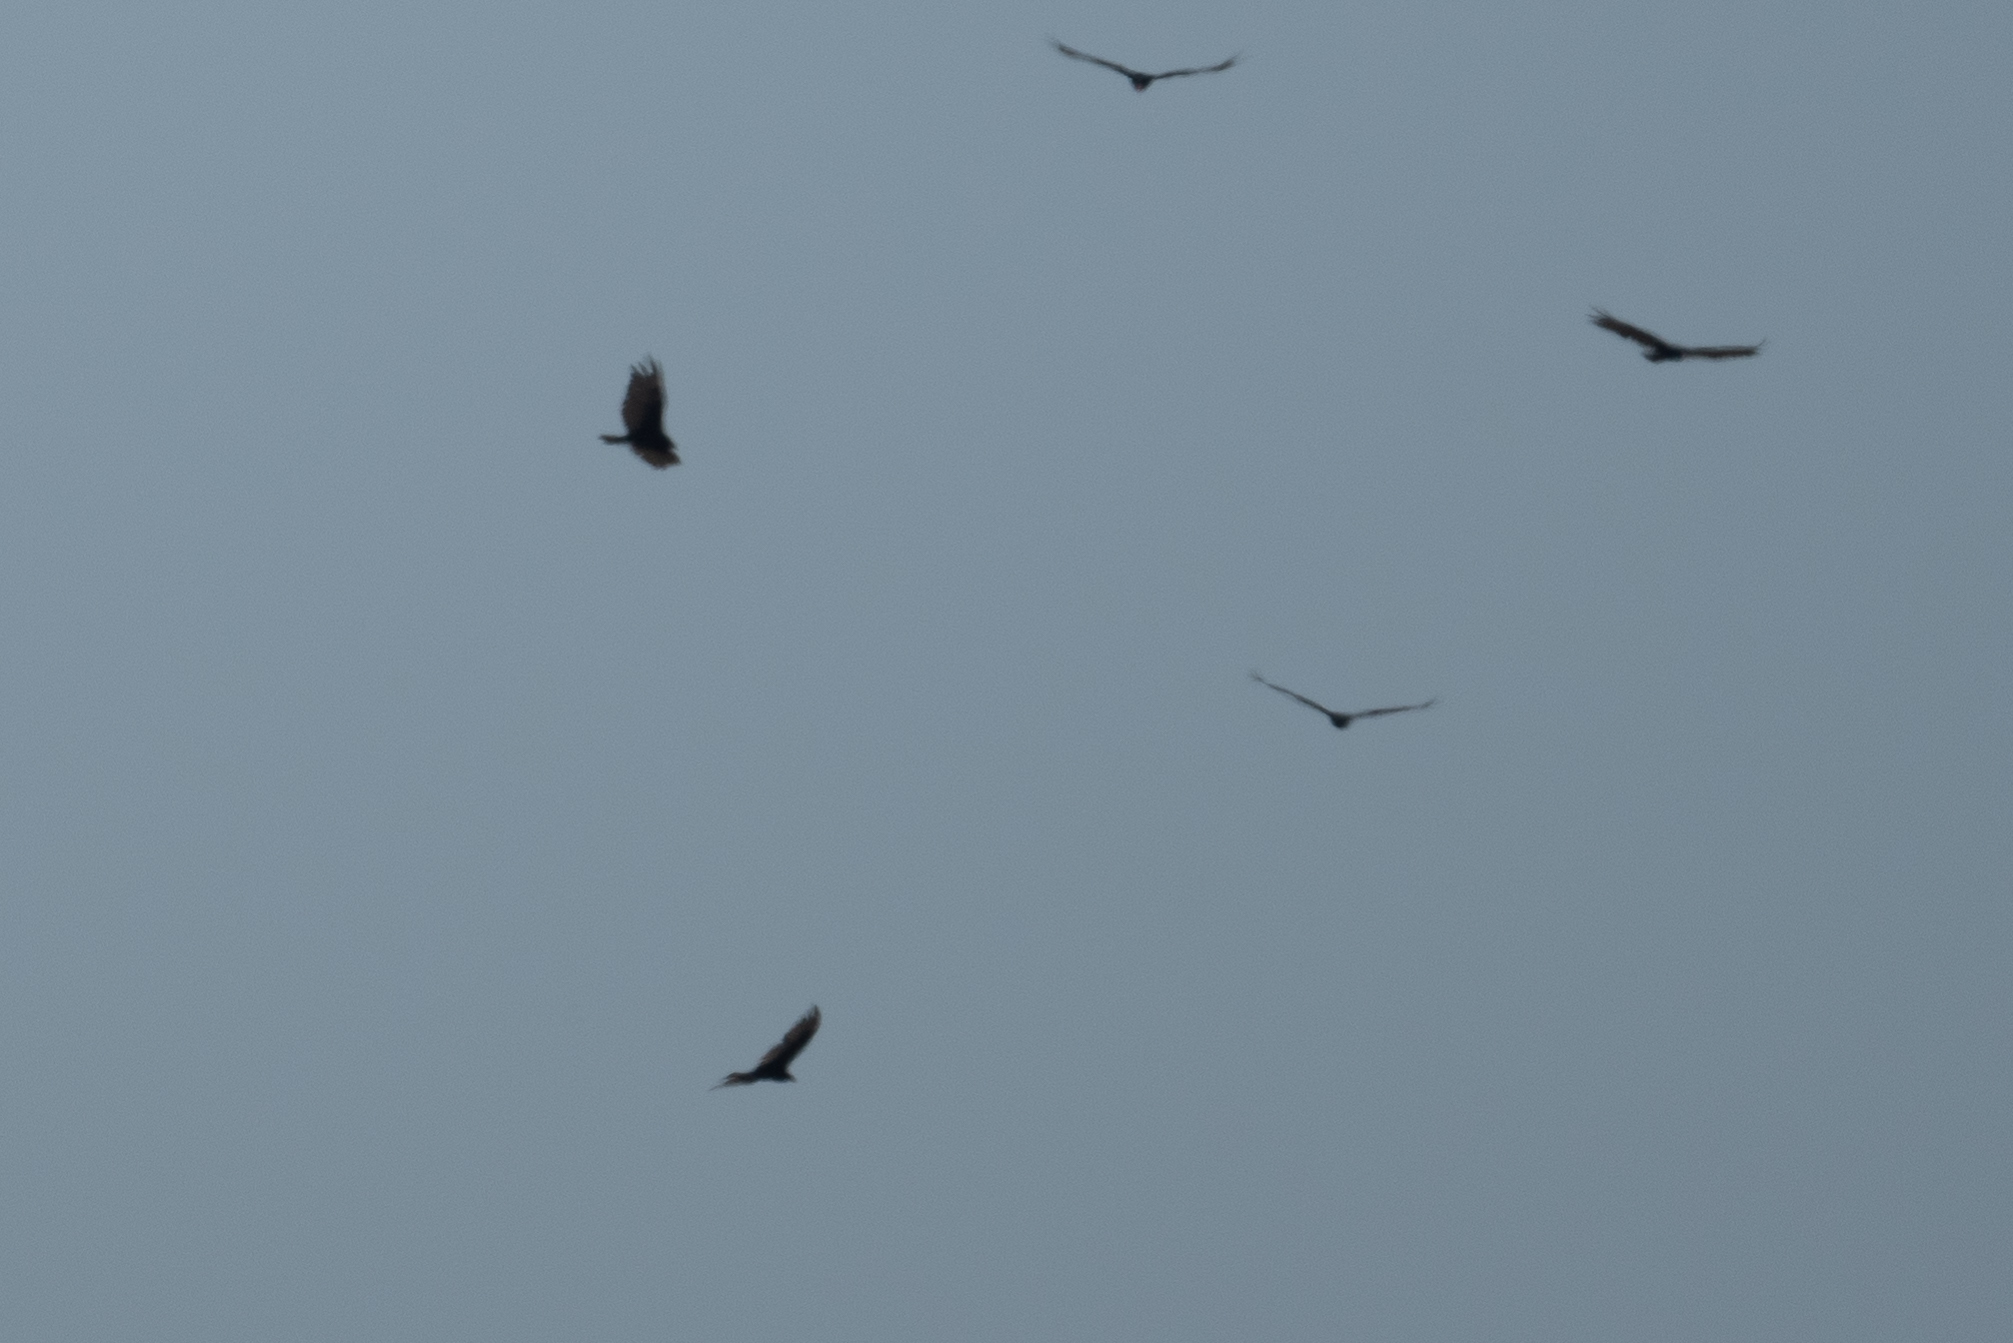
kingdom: Animalia
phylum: Chordata
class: Aves
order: Accipitriformes
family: Cathartidae
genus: Cathartes
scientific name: Cathartes aura
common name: Turkey vulture
